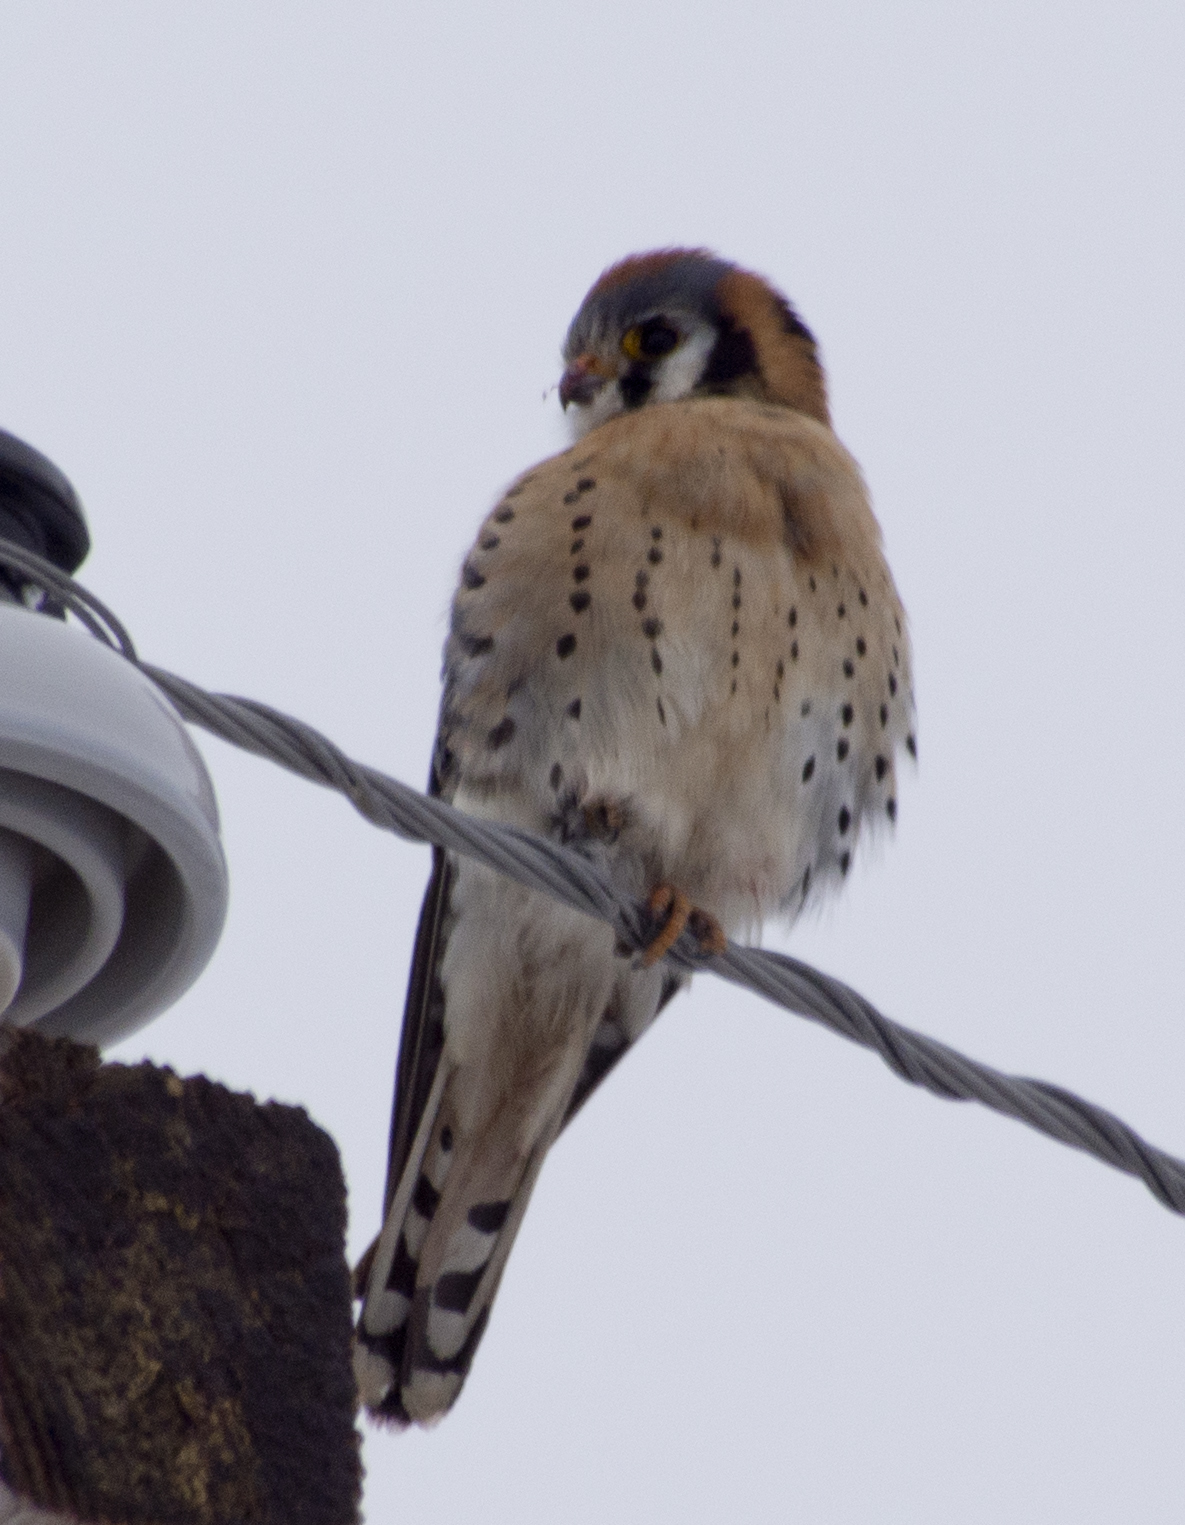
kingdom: Animalia
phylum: Chordata
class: Aves
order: Falconiformes
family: Falconidae
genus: Falco
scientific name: Falco sparverius
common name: American kestrel
